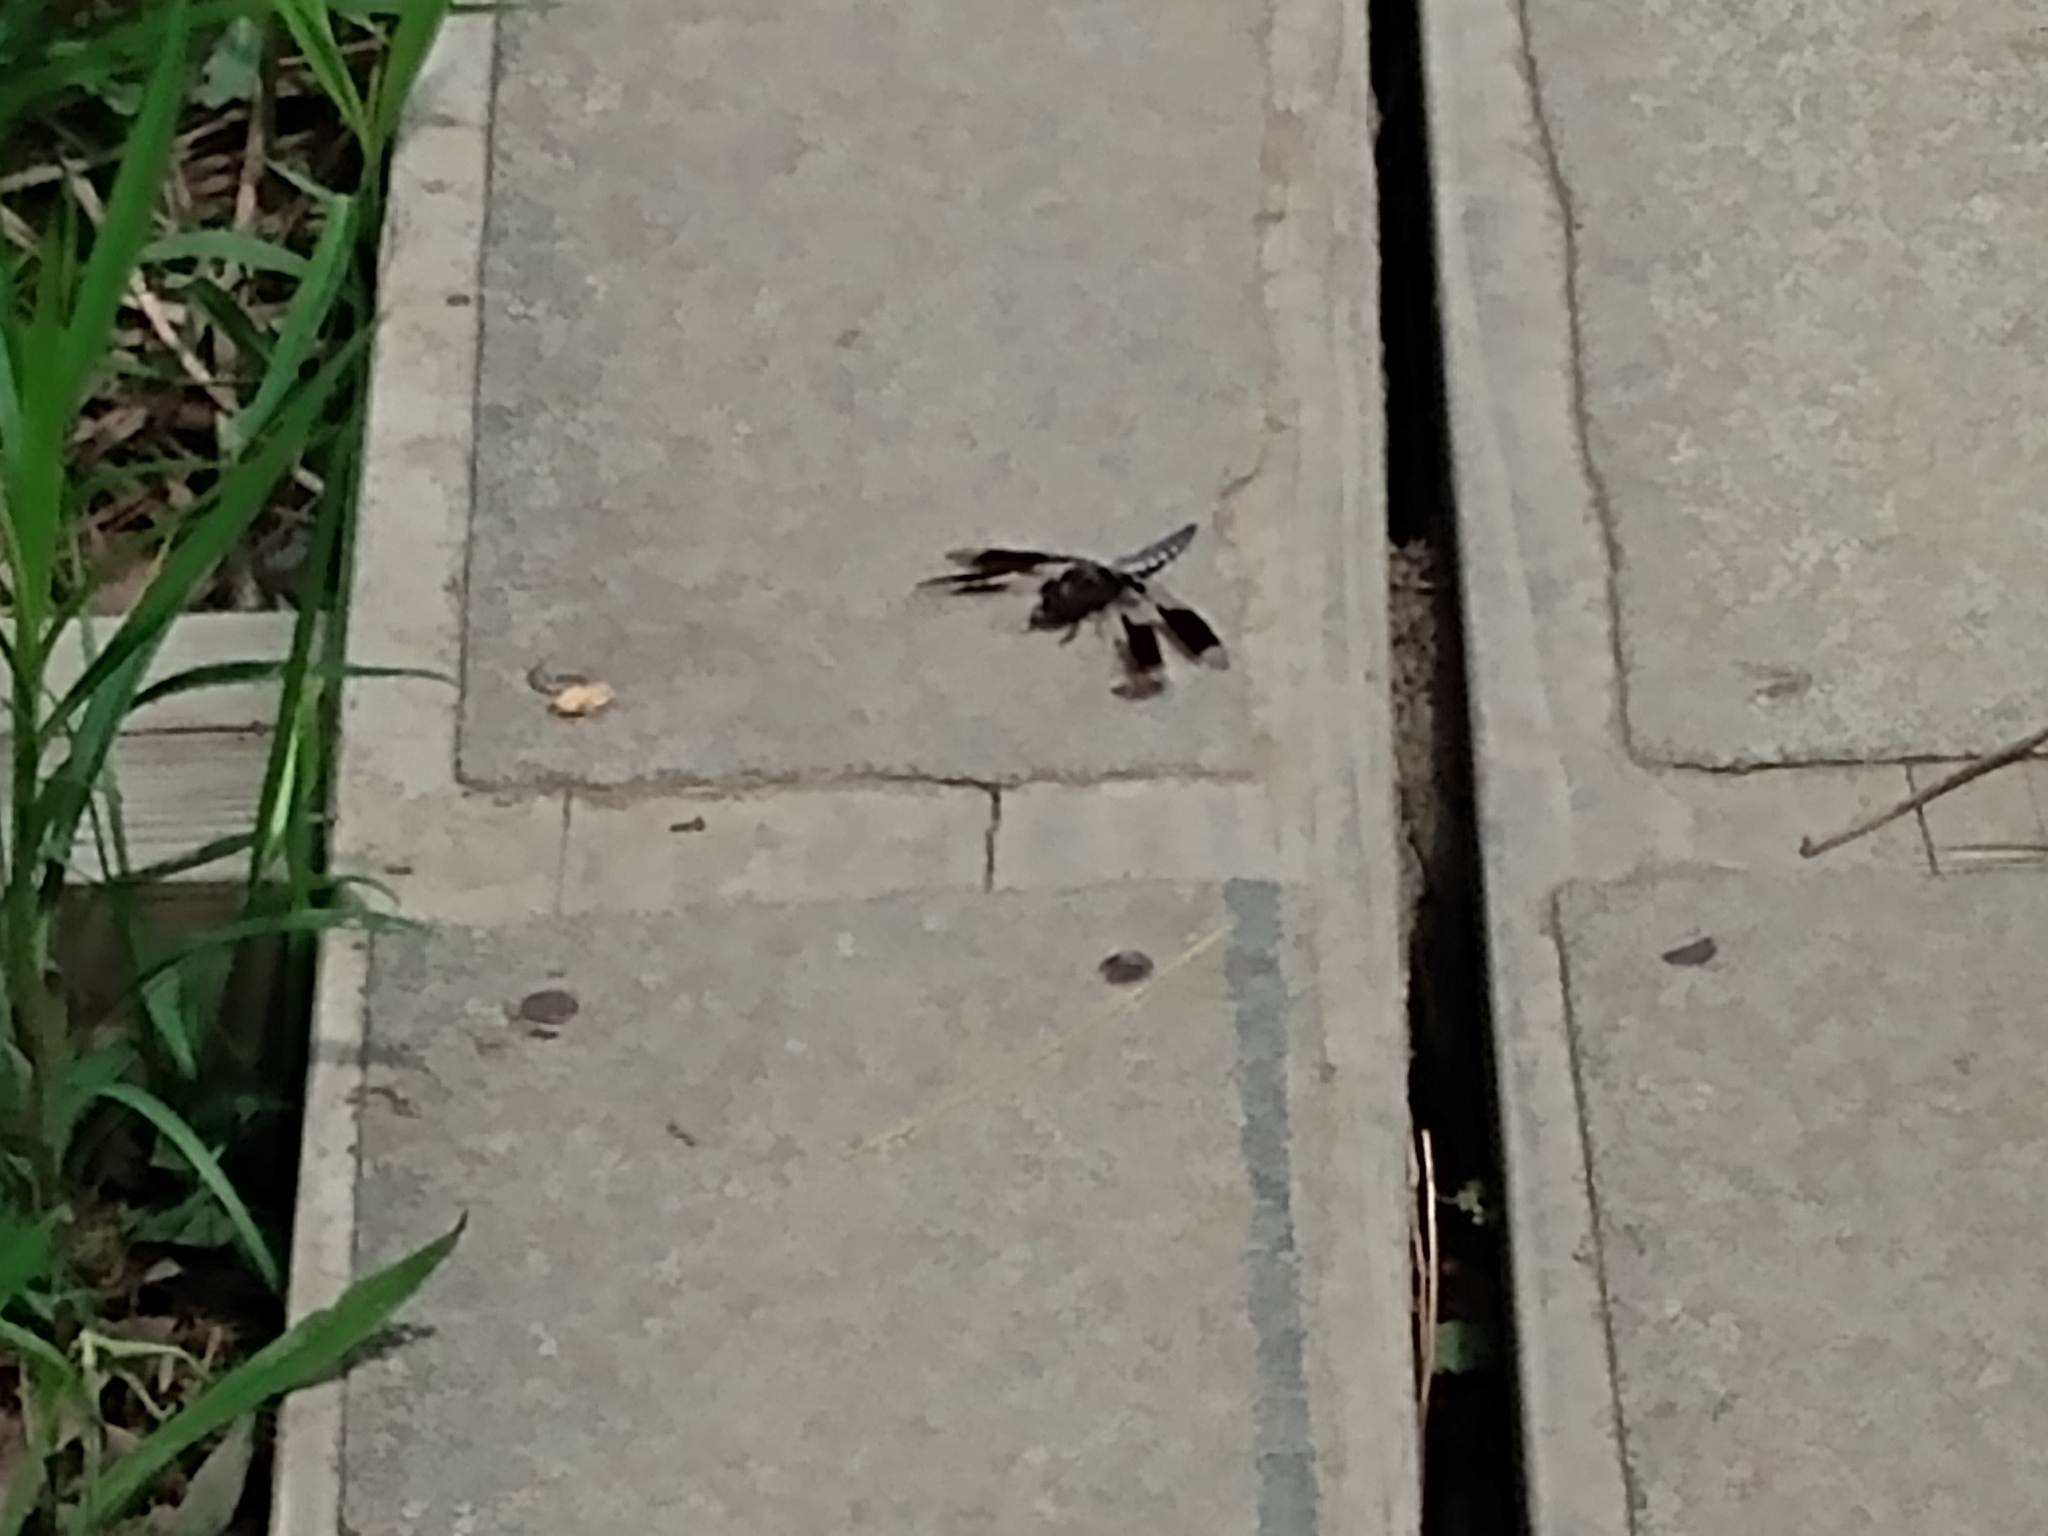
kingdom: Animalia
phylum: Arthropoda
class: Insecta
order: Odonata
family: Libellulidae
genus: Plathemis
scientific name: Plathemis lydia
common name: Common whitetail
